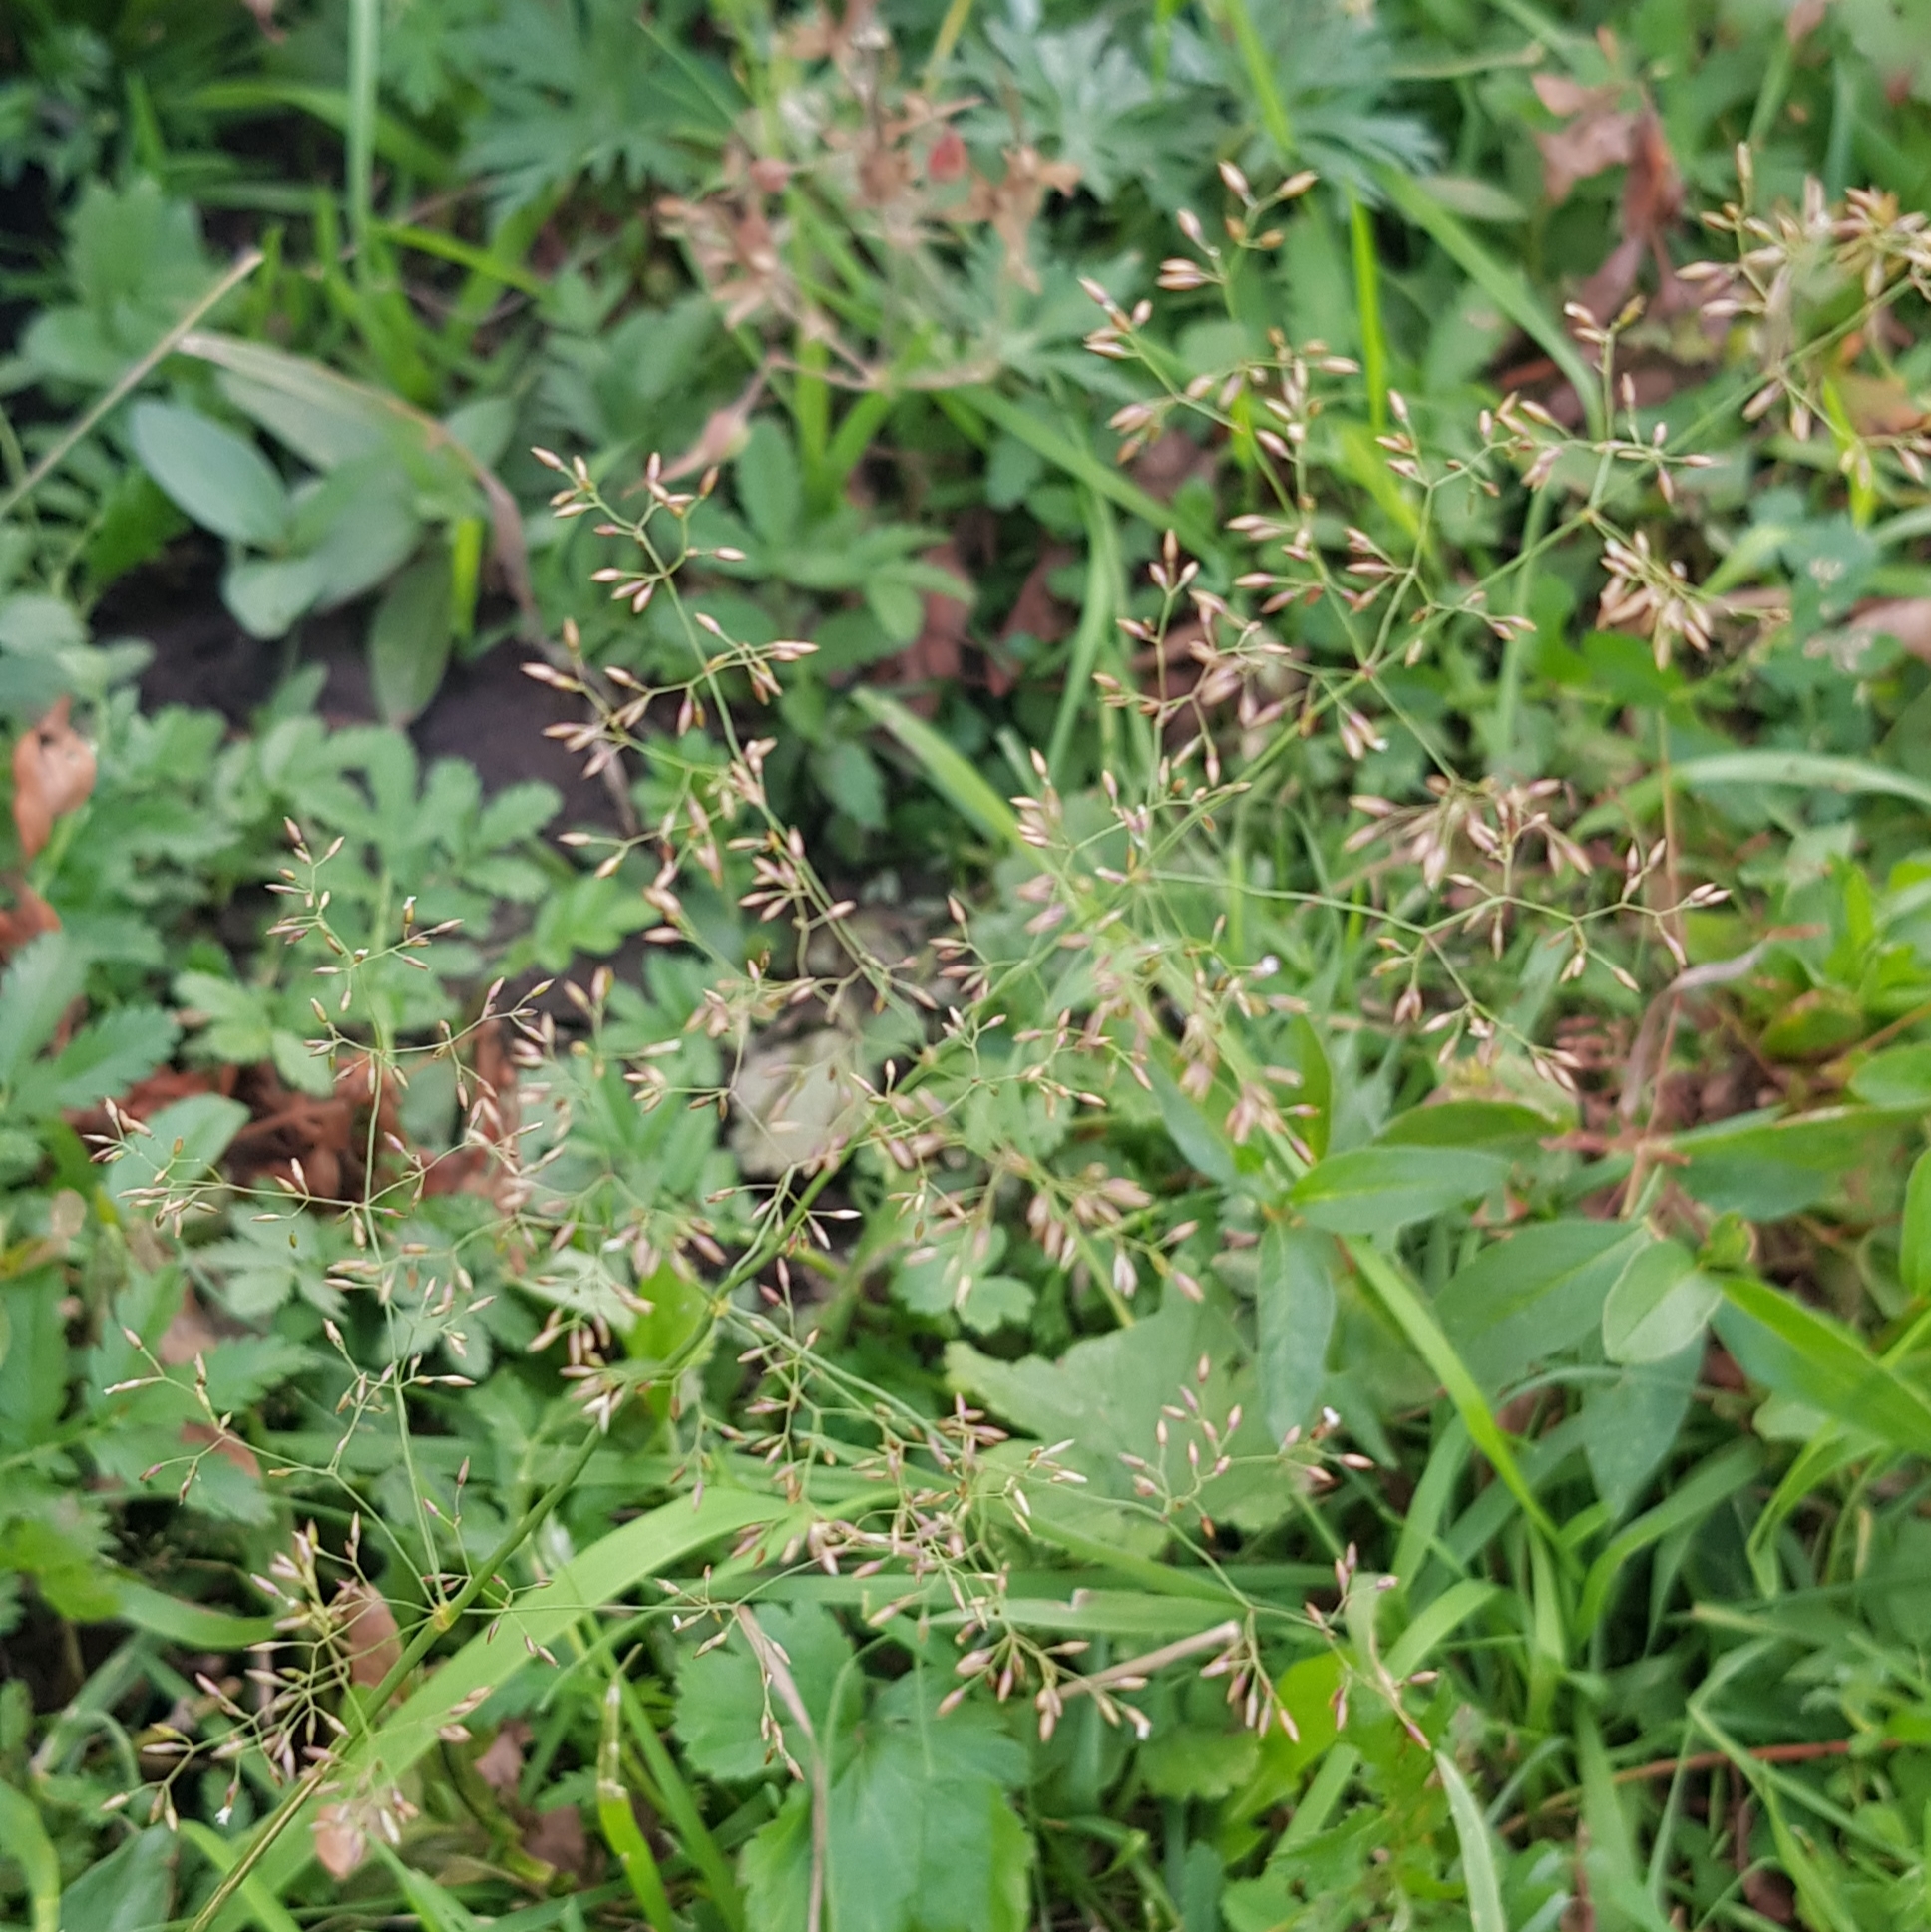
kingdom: Plantae
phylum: Tracheophyta
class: Liliopsida
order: Poales
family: Poaceae
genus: Agrostis
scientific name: Agrostis gigantea
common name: Black bent
